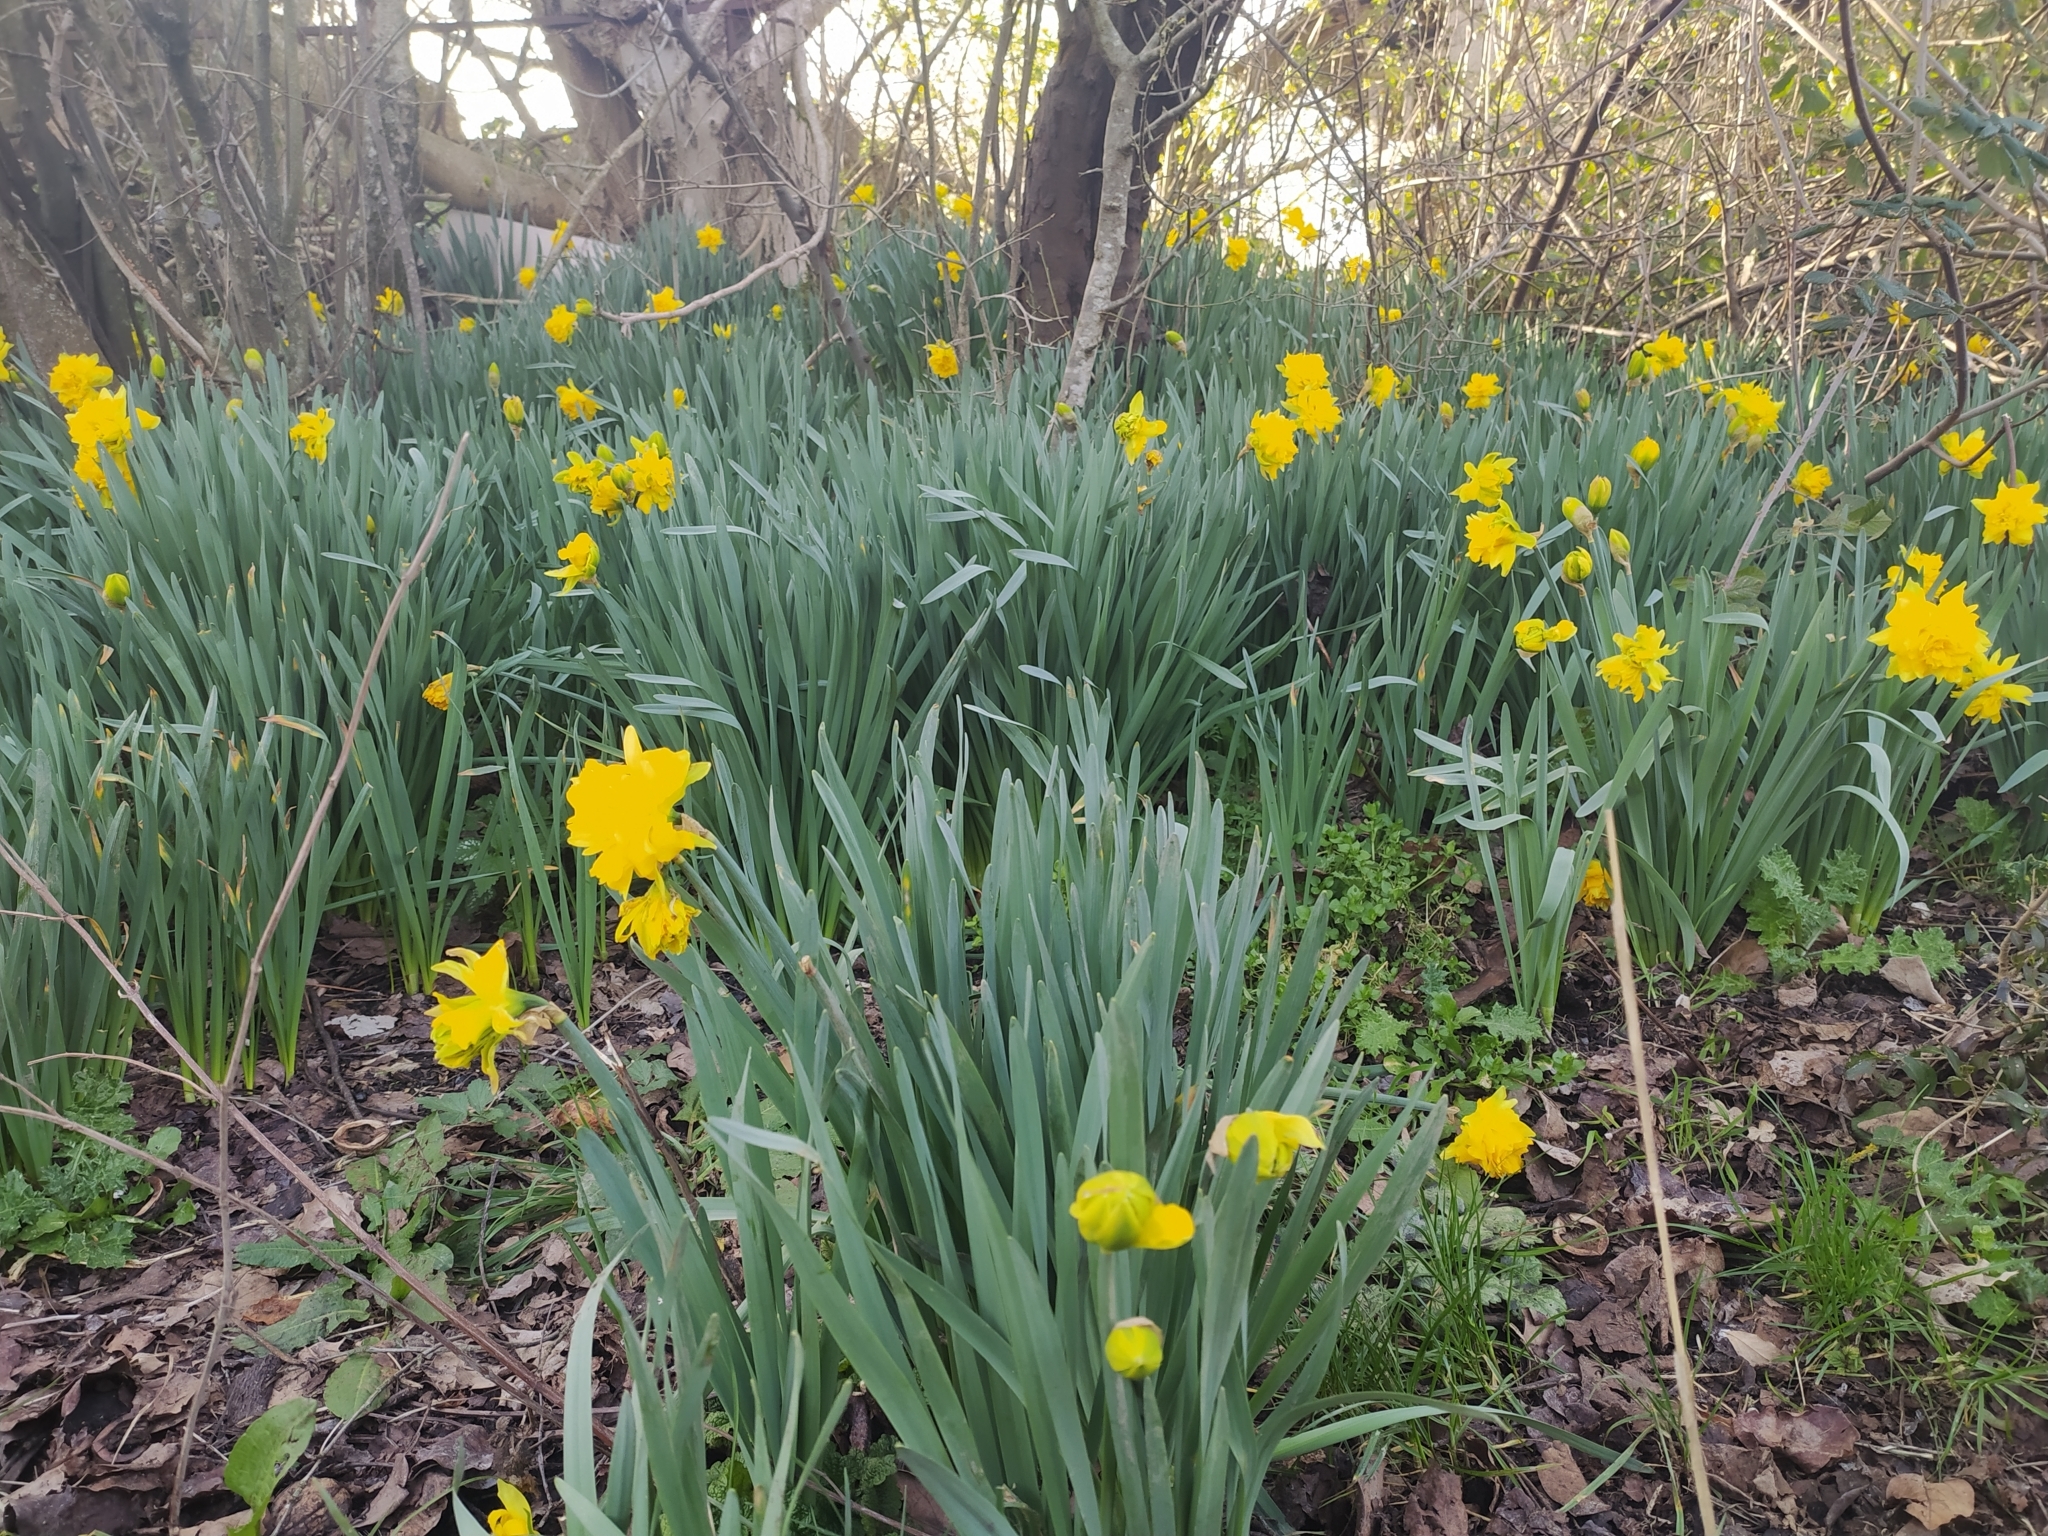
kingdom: Plantae
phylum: Tracheophyta
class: Liliopsida
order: Asparagales
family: Amaryllidaceae
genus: Narcissus
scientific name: Narcissus pseudonarcissus
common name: Daffodil
